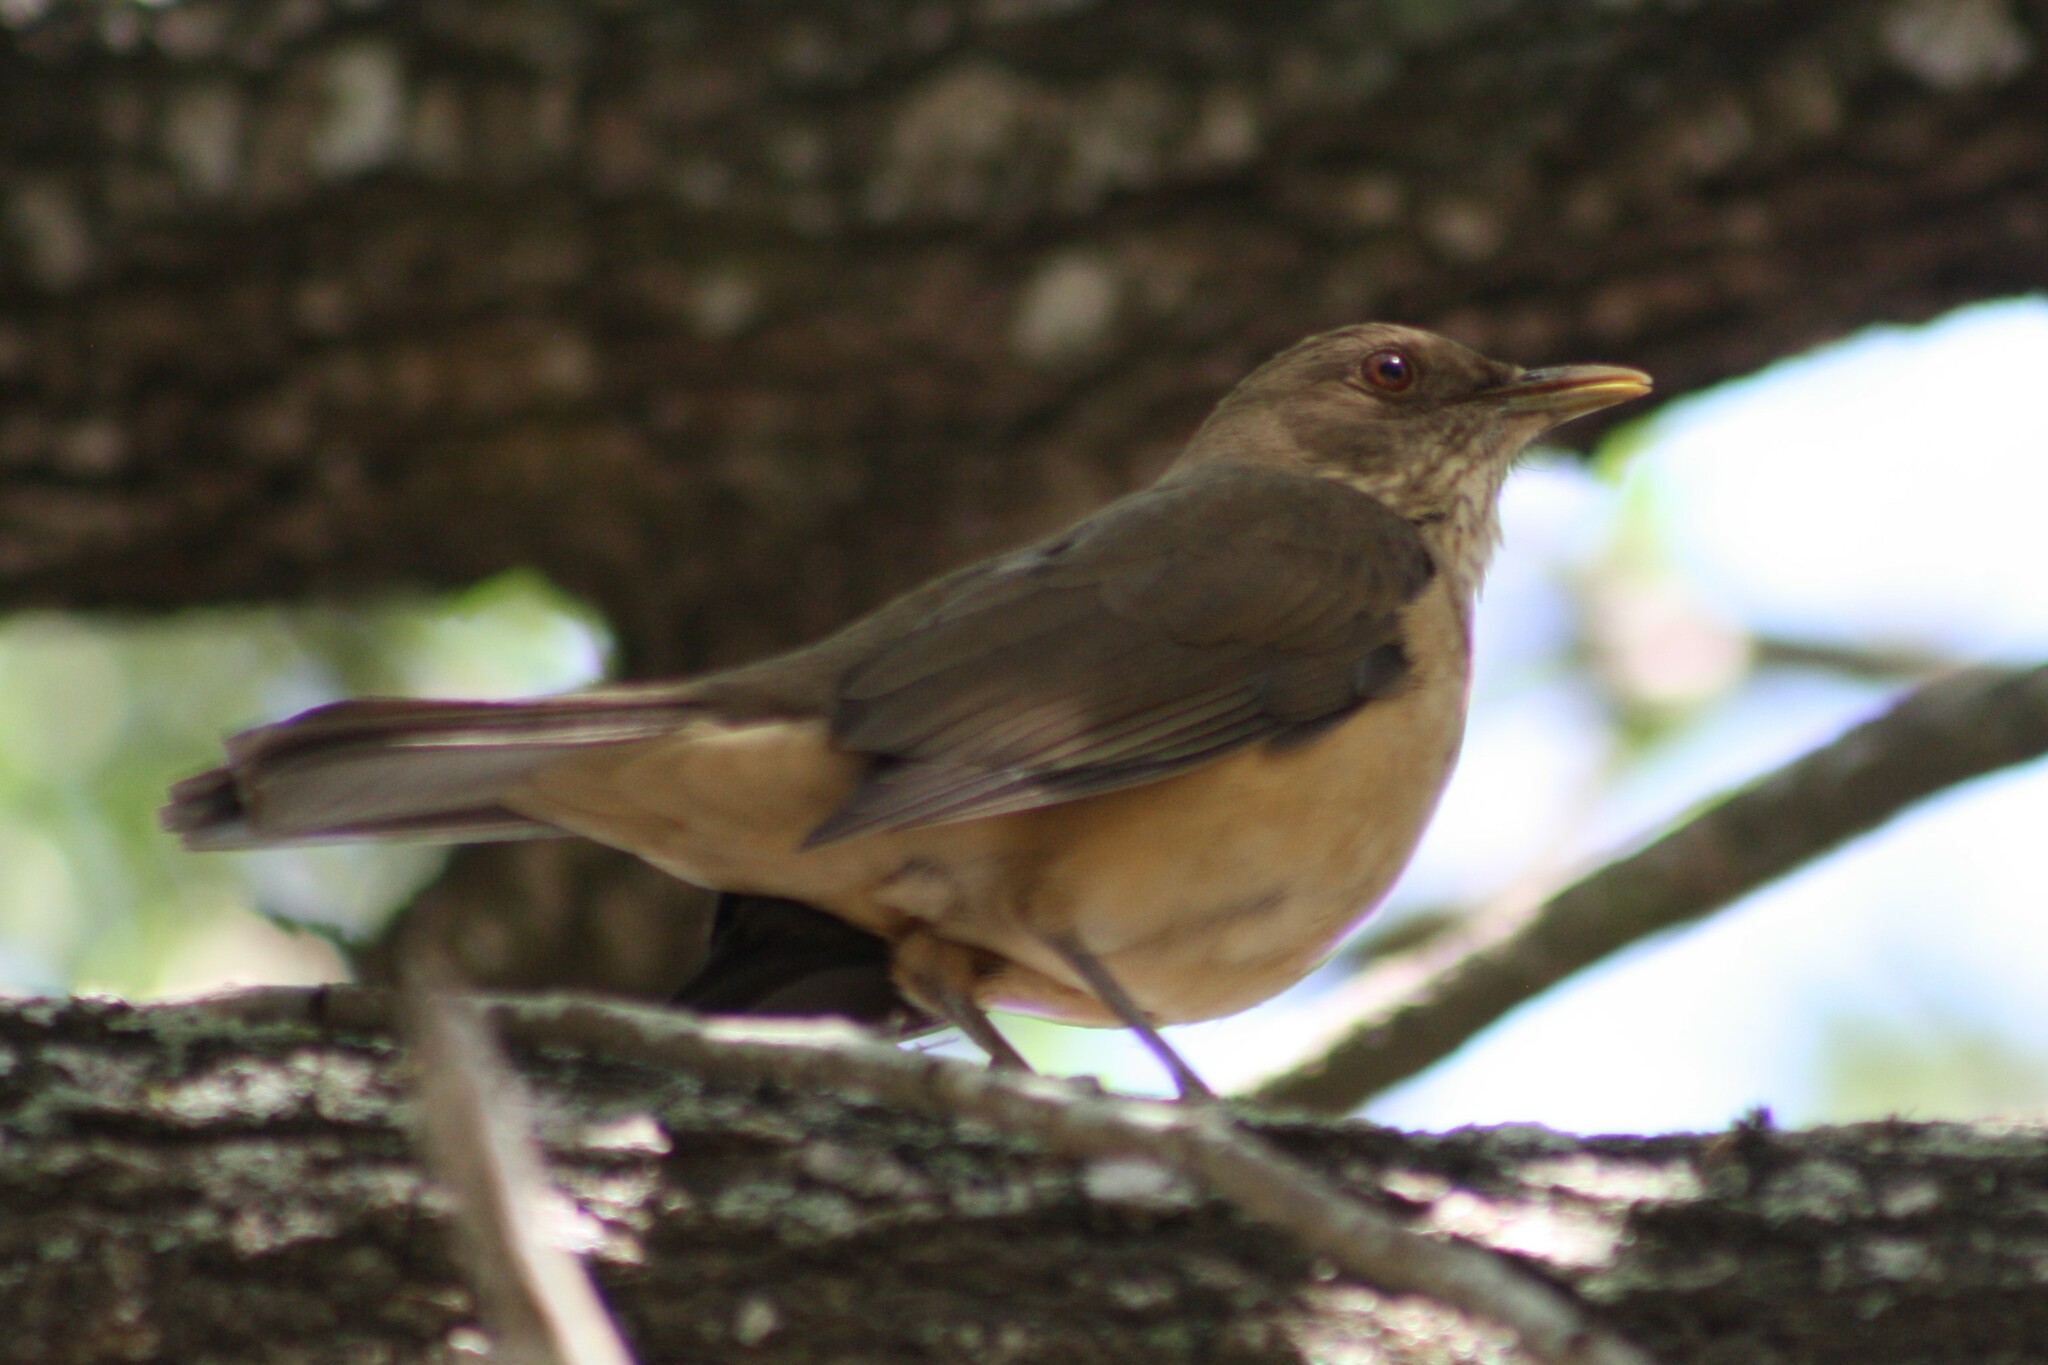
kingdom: Animalia
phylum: Chordata
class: Aves
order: Passeriformes
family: Turdidae
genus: Turdus
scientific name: Turdus grayi
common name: Clay-colored thrush
